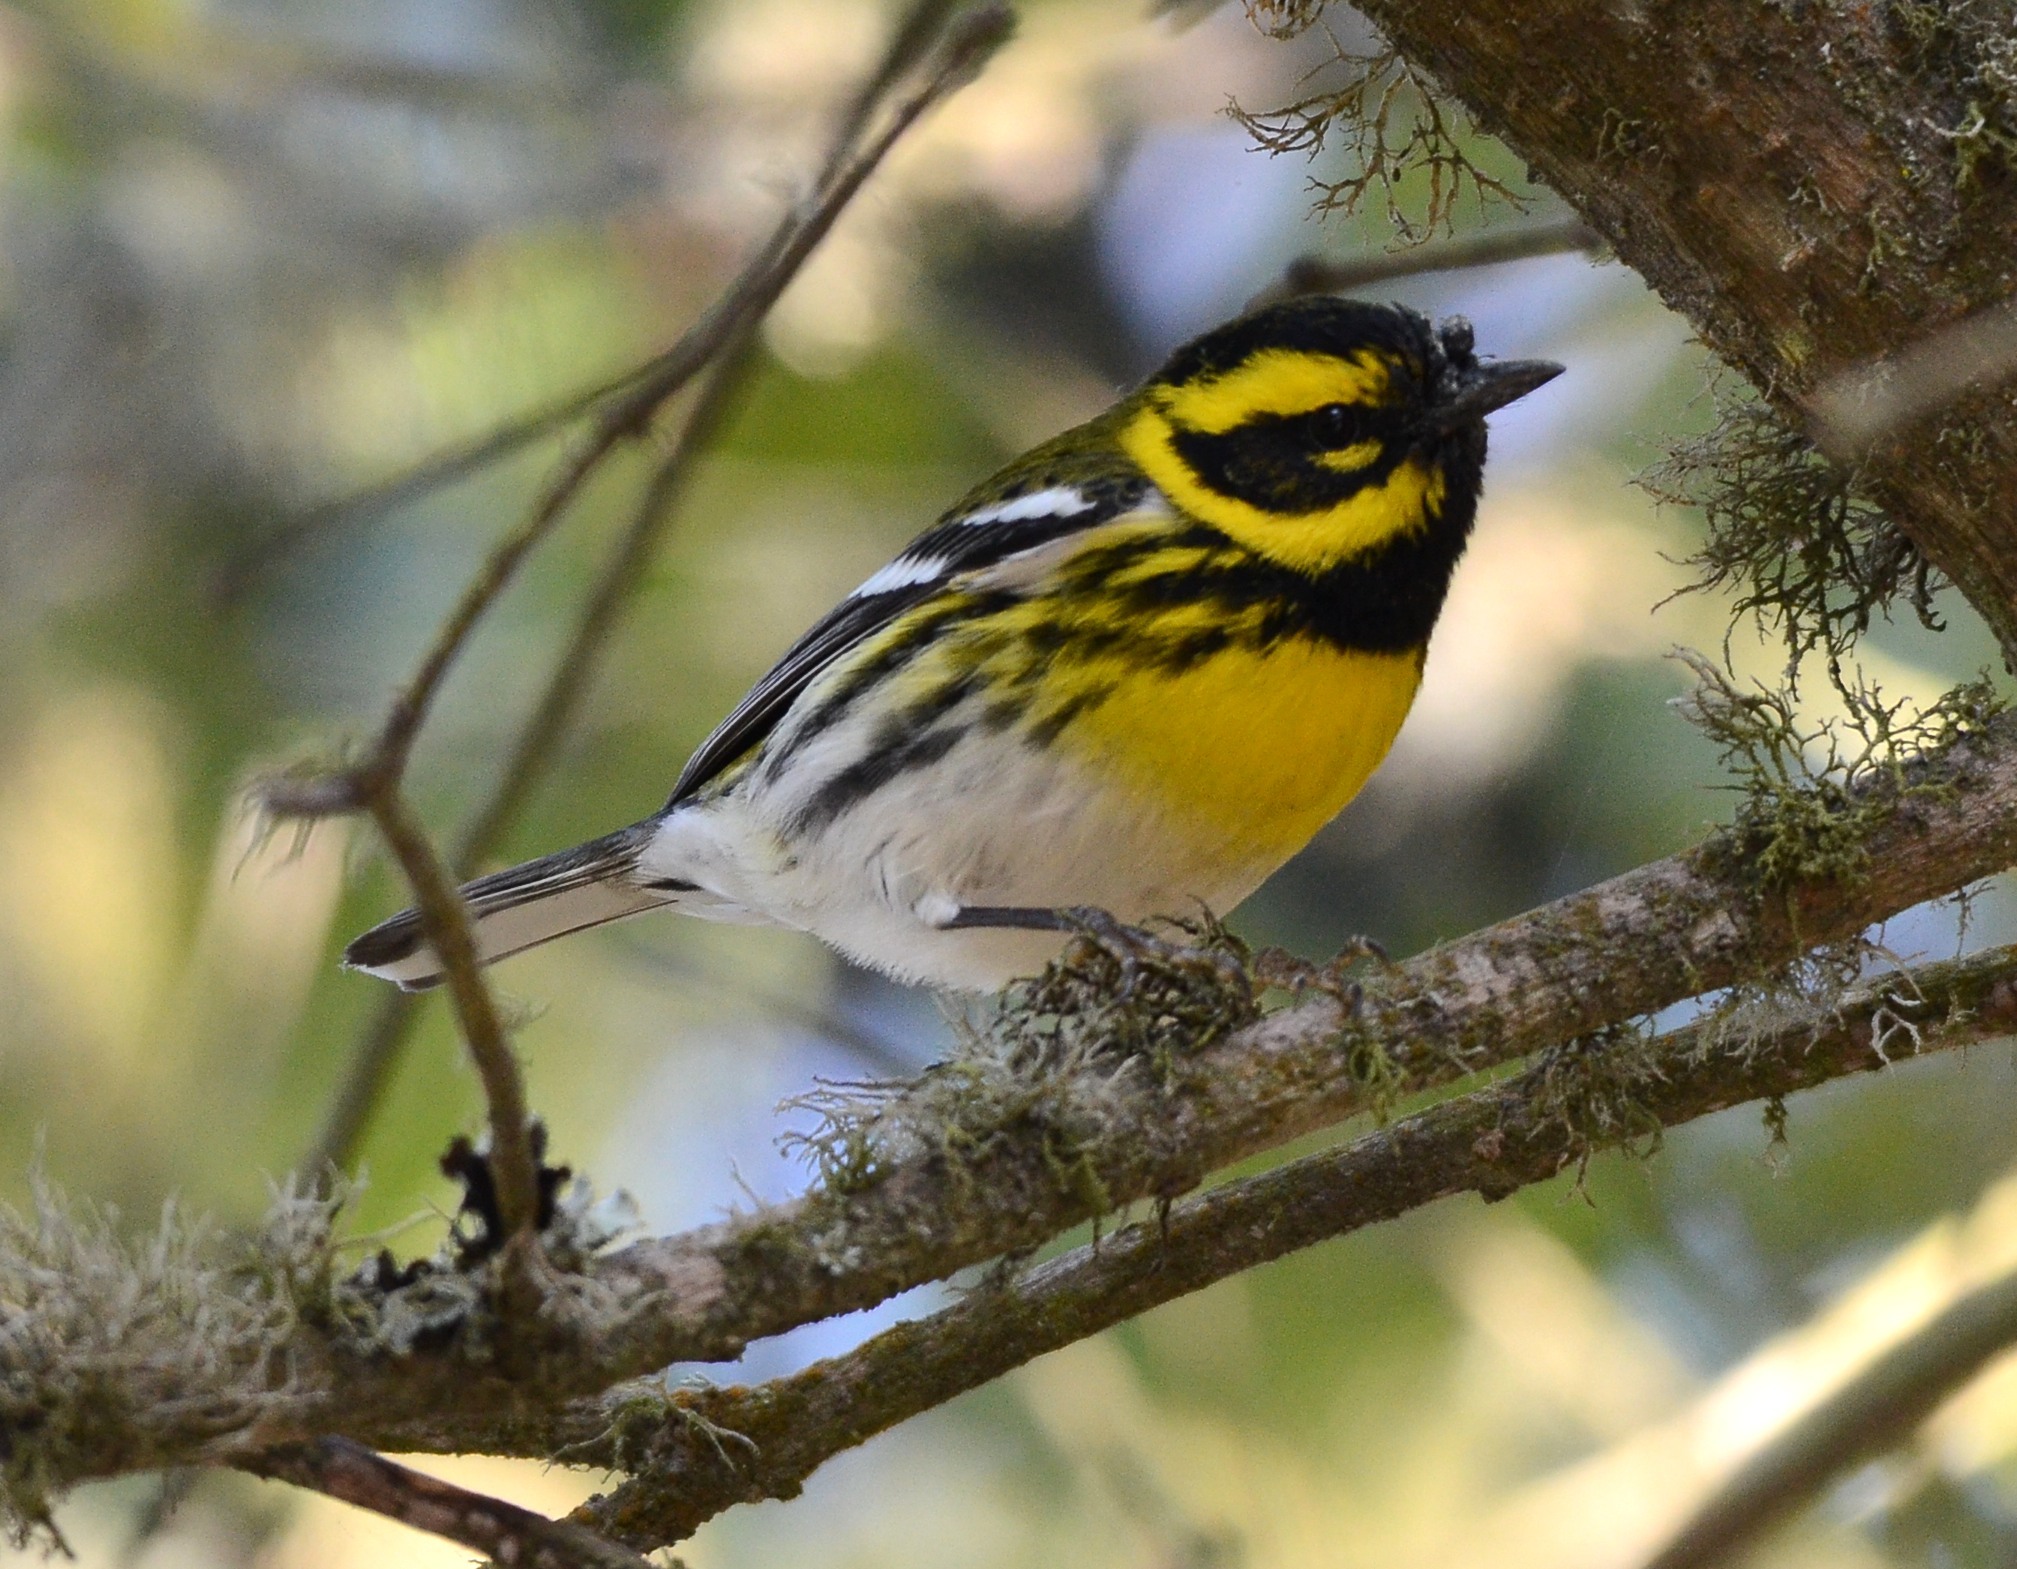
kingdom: Animalia
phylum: Chordata
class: Aves
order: Passeriformes
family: Parulidae
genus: Setophaga
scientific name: Setophaga townsendi
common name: Townsend's warbler
